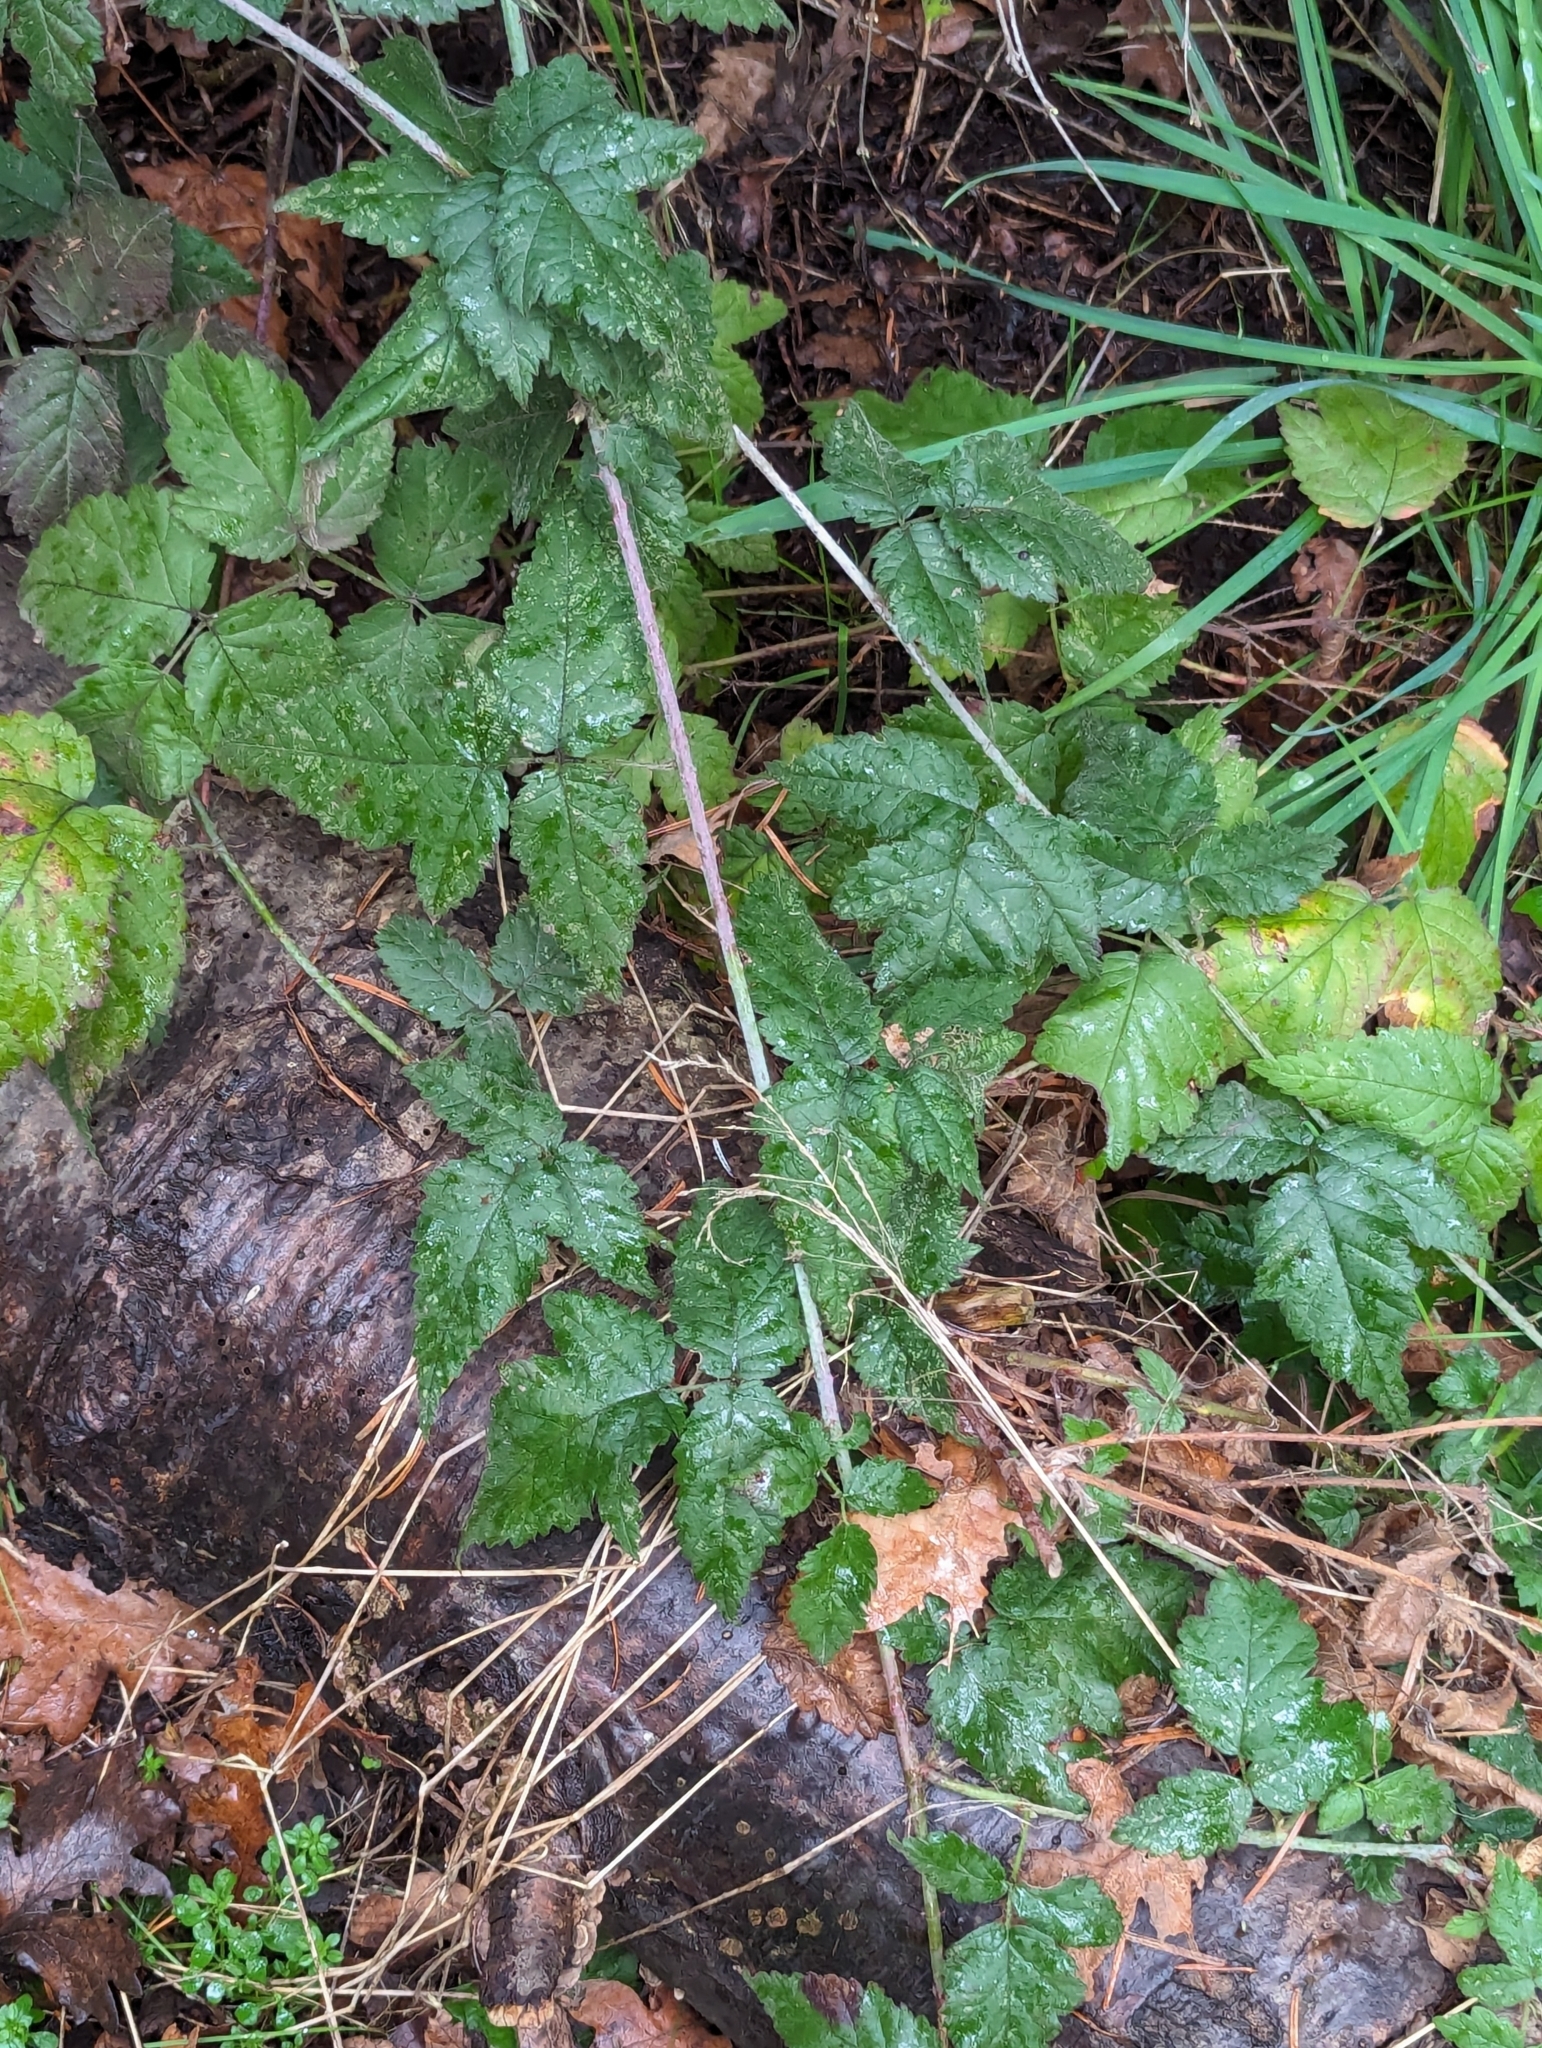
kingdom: Plantae
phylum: Tracheophyta
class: Magnoliopsida
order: Rosales
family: Rosaceae
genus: Rubus
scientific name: Rubus ursinus
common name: Pacific blackberry
